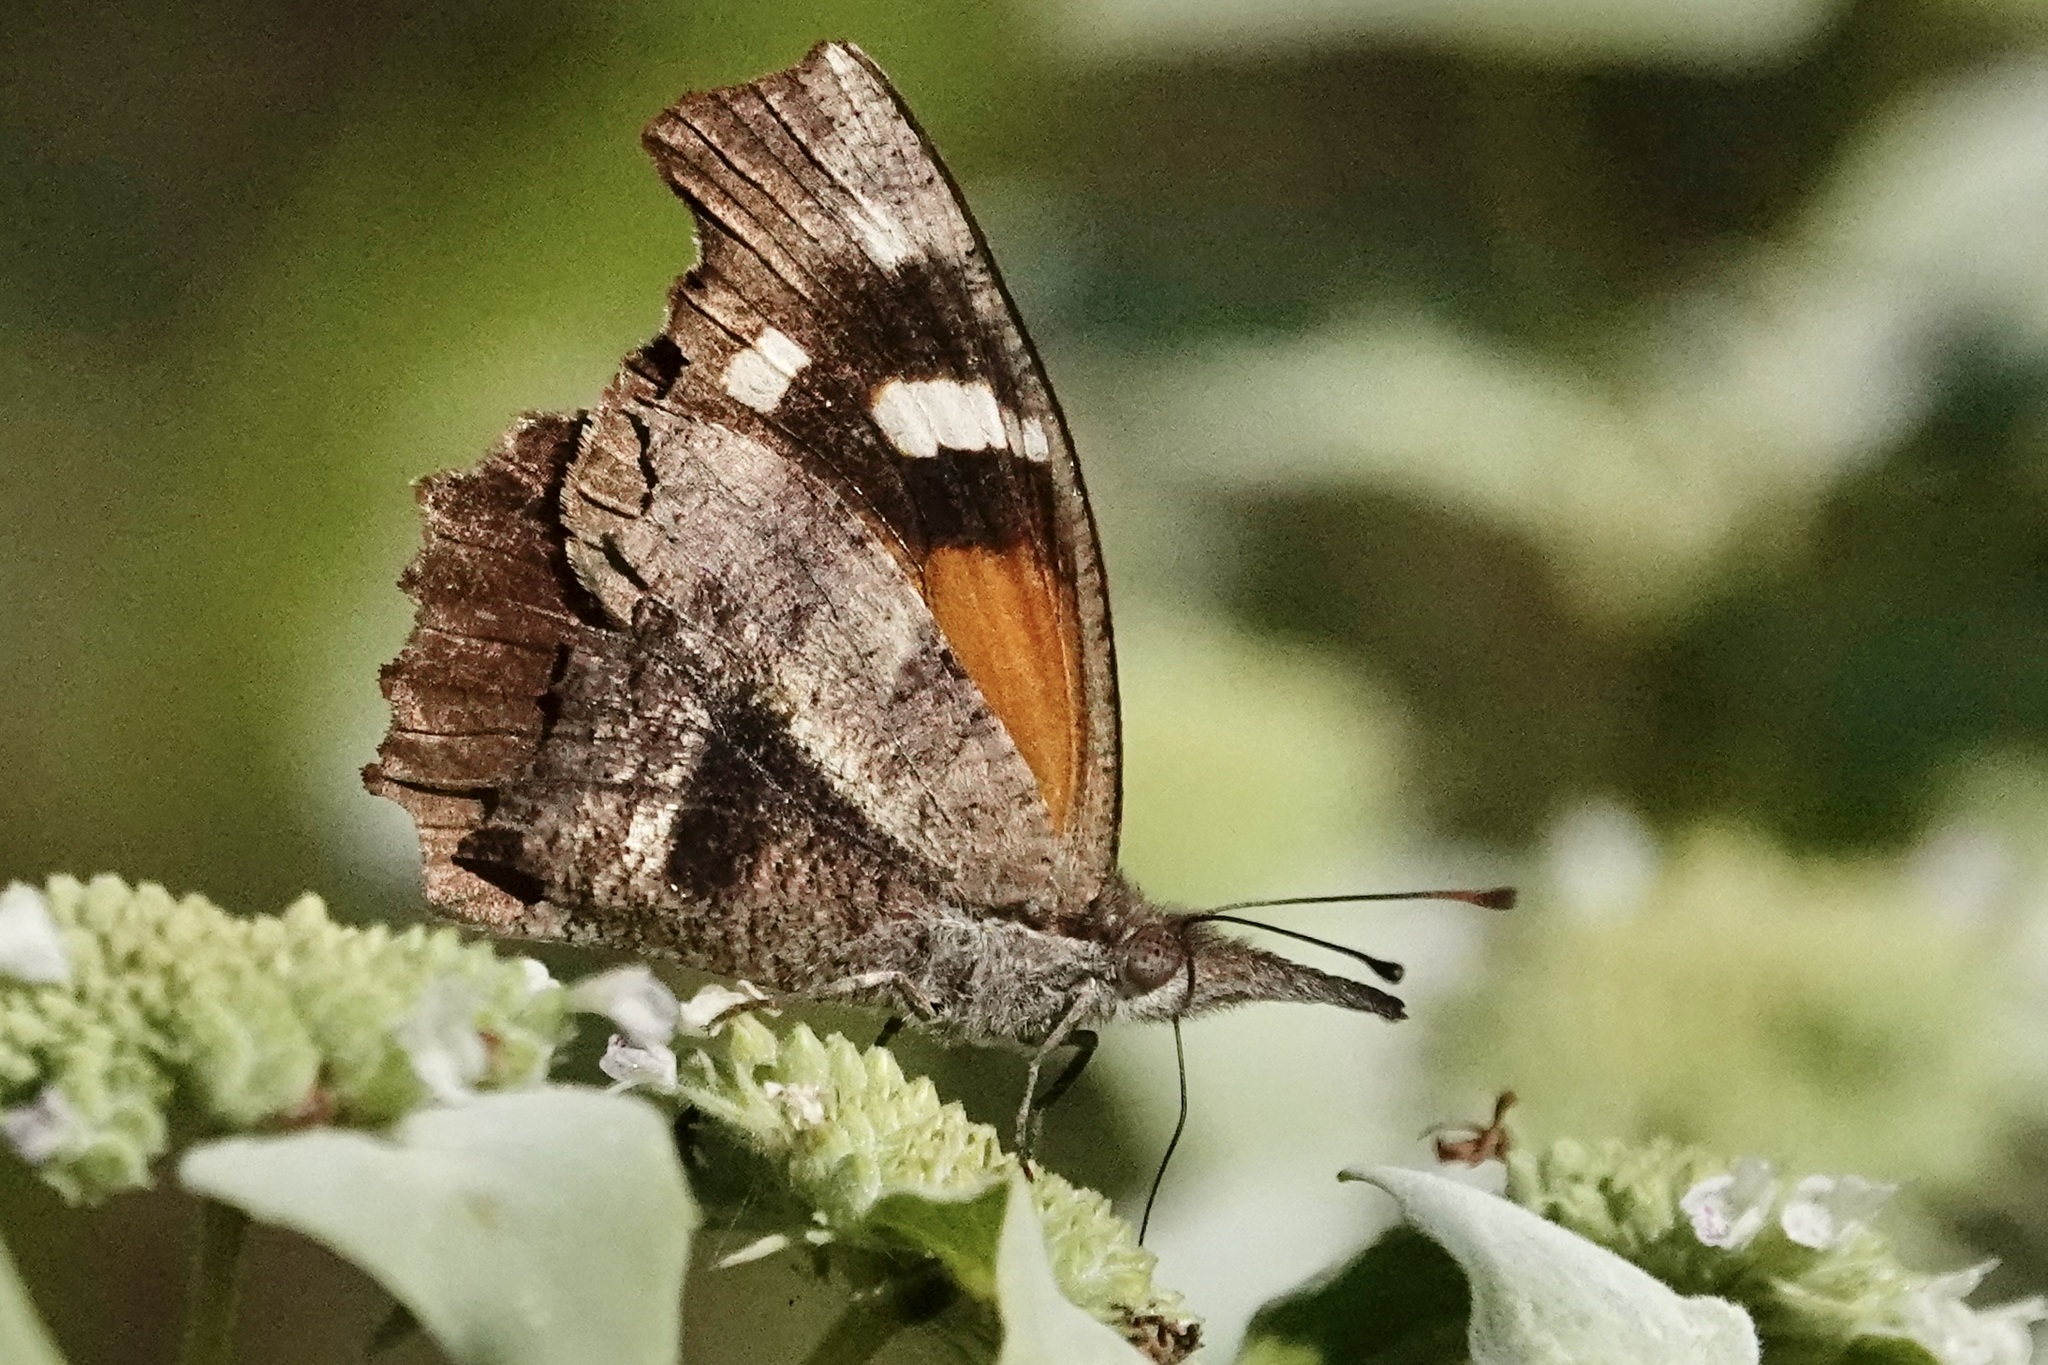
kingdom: Animalia
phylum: Arthropoda
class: Insecta
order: Lepidoptera
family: Nymphalidae
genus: Libytheana
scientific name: Libytheana carinenta
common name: American snout
